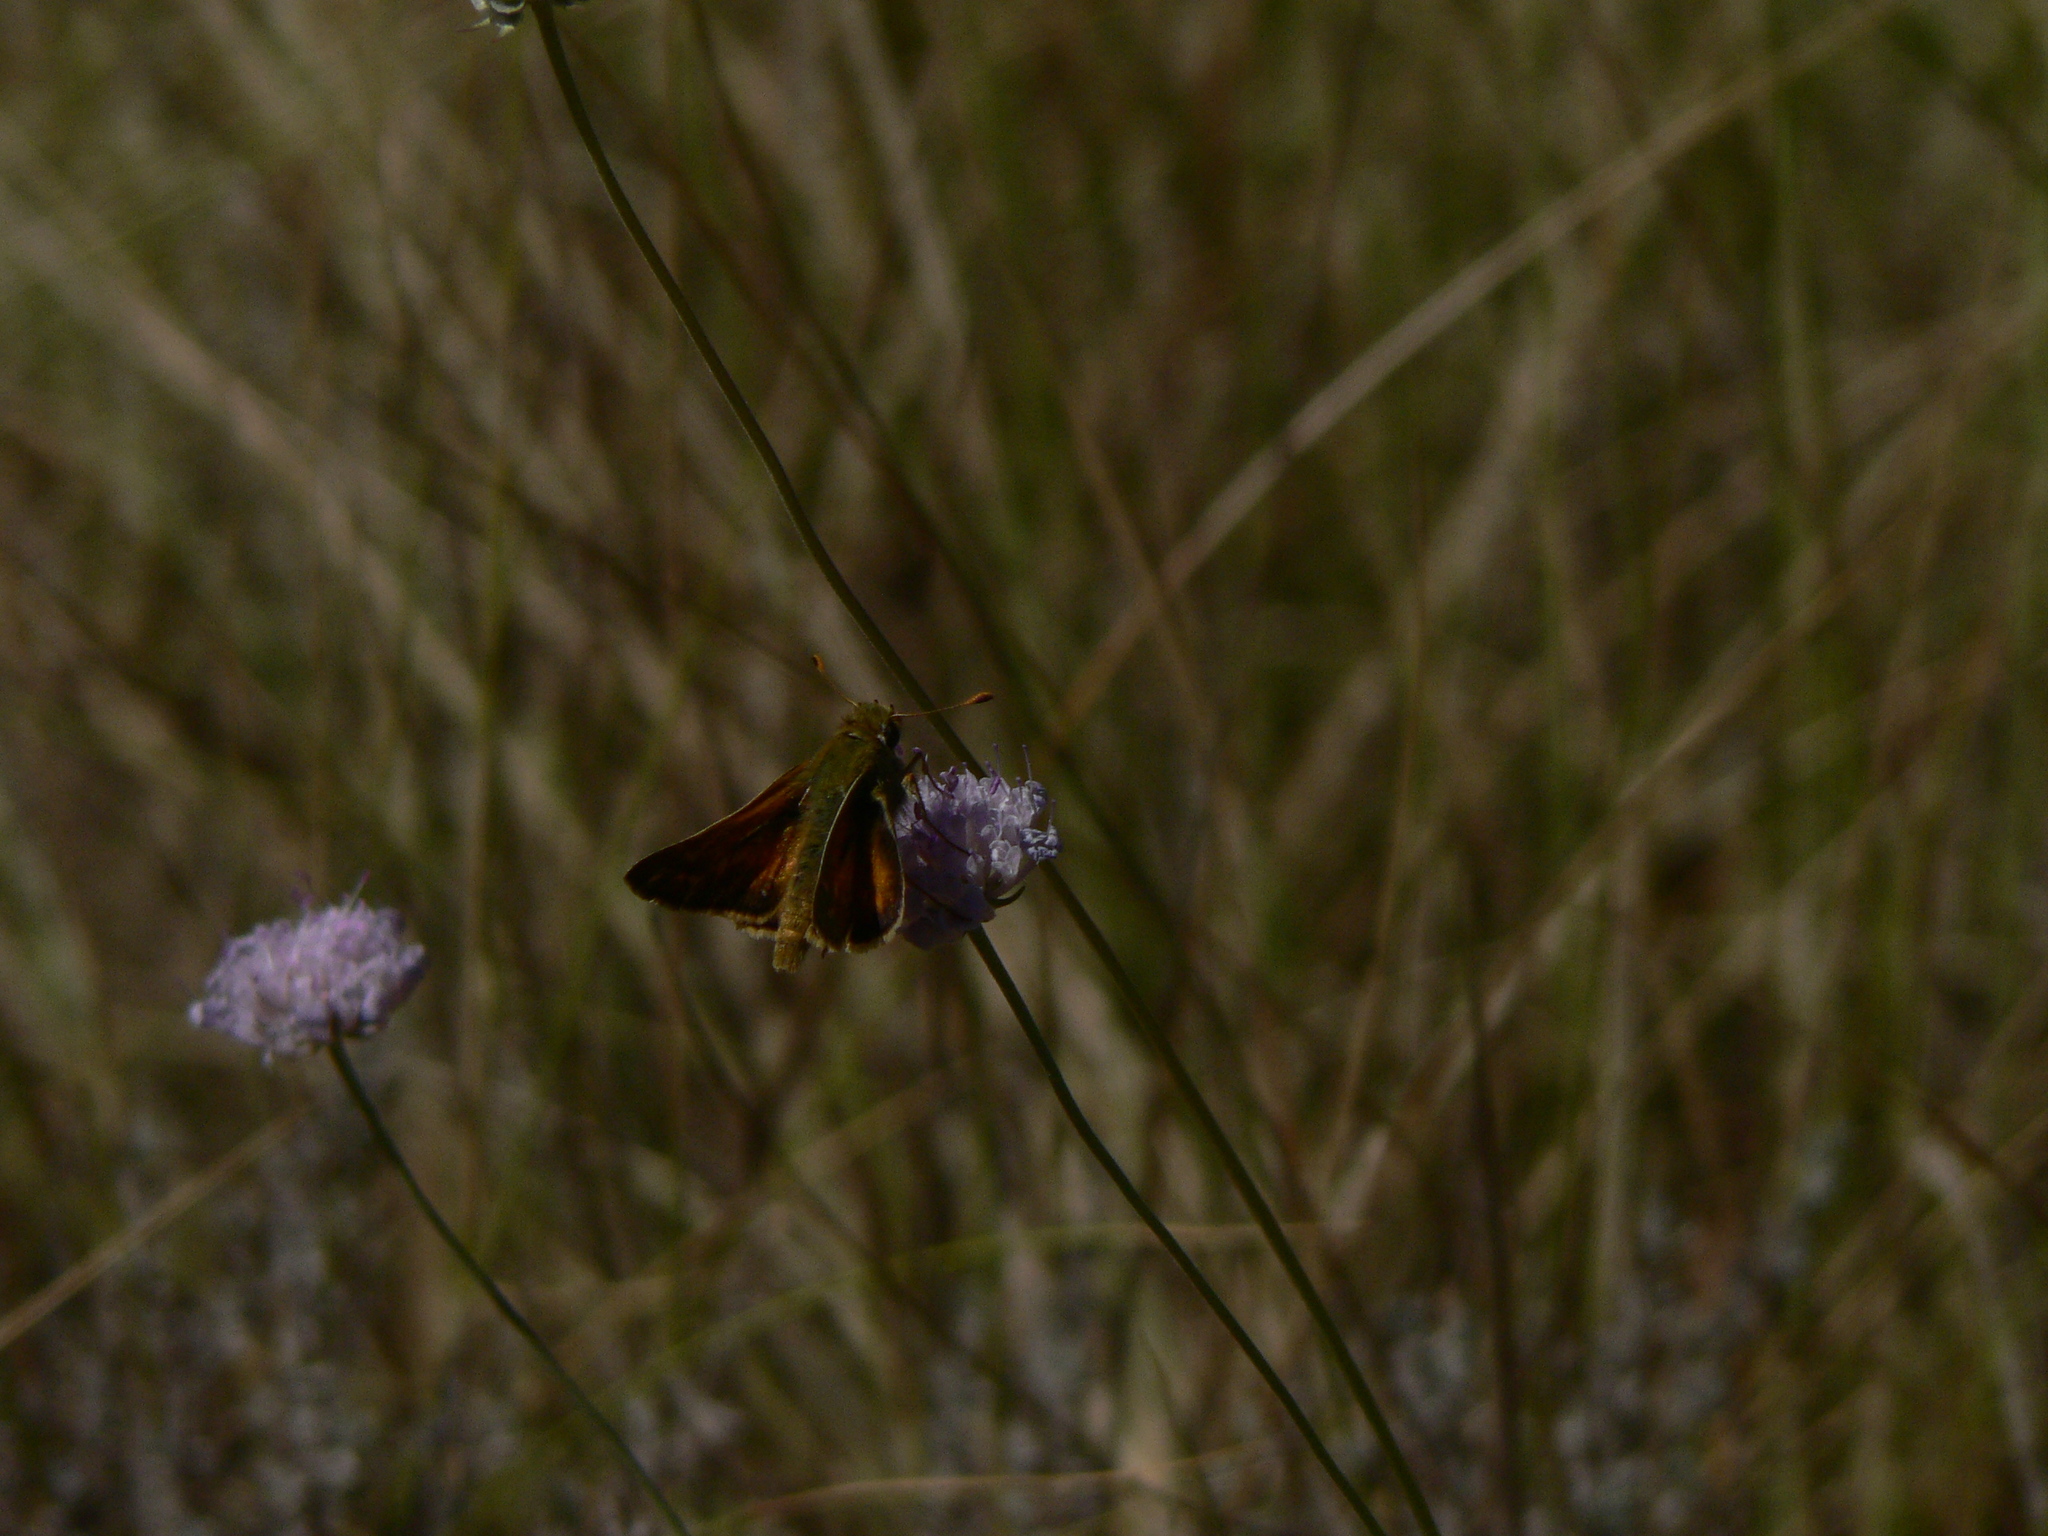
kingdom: Animalia
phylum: Arthropoda
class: Insecta
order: Lepidoptera
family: Hesperiidae
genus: Hesperia
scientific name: Hesperia comma
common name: Common branded skipper
